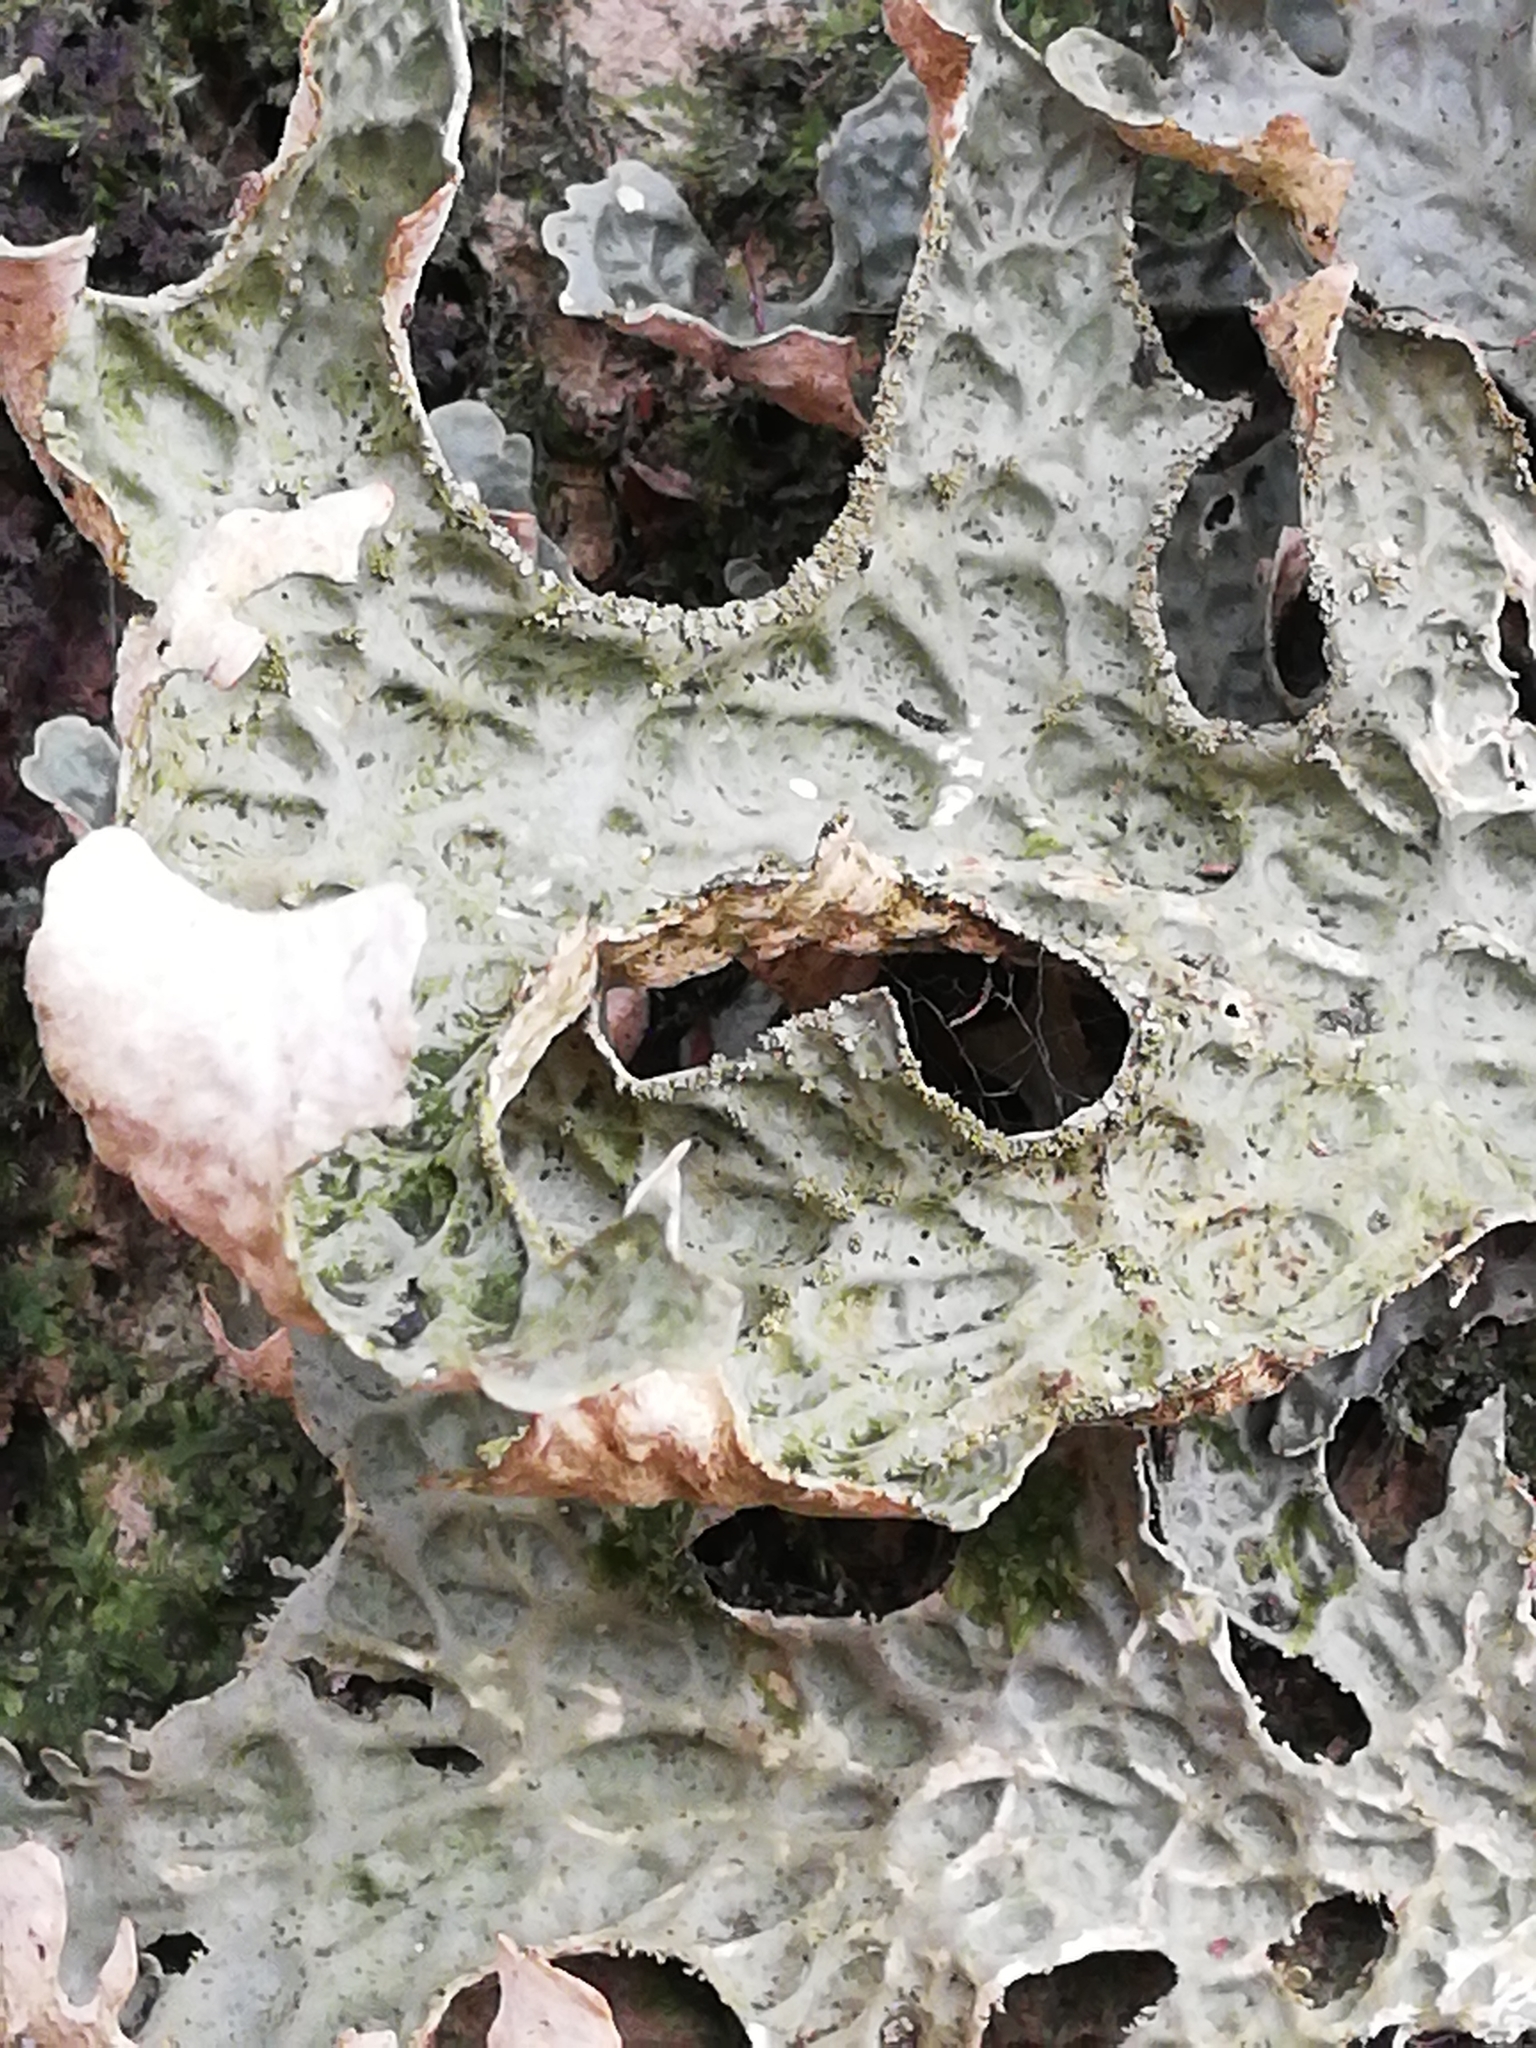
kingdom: Fungi
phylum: Ascomycota
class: Lecanoromycetes
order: Peltigerales
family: Lobariaceae
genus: Lobaria
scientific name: Lobaria pulmonaria
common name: Lungwort
